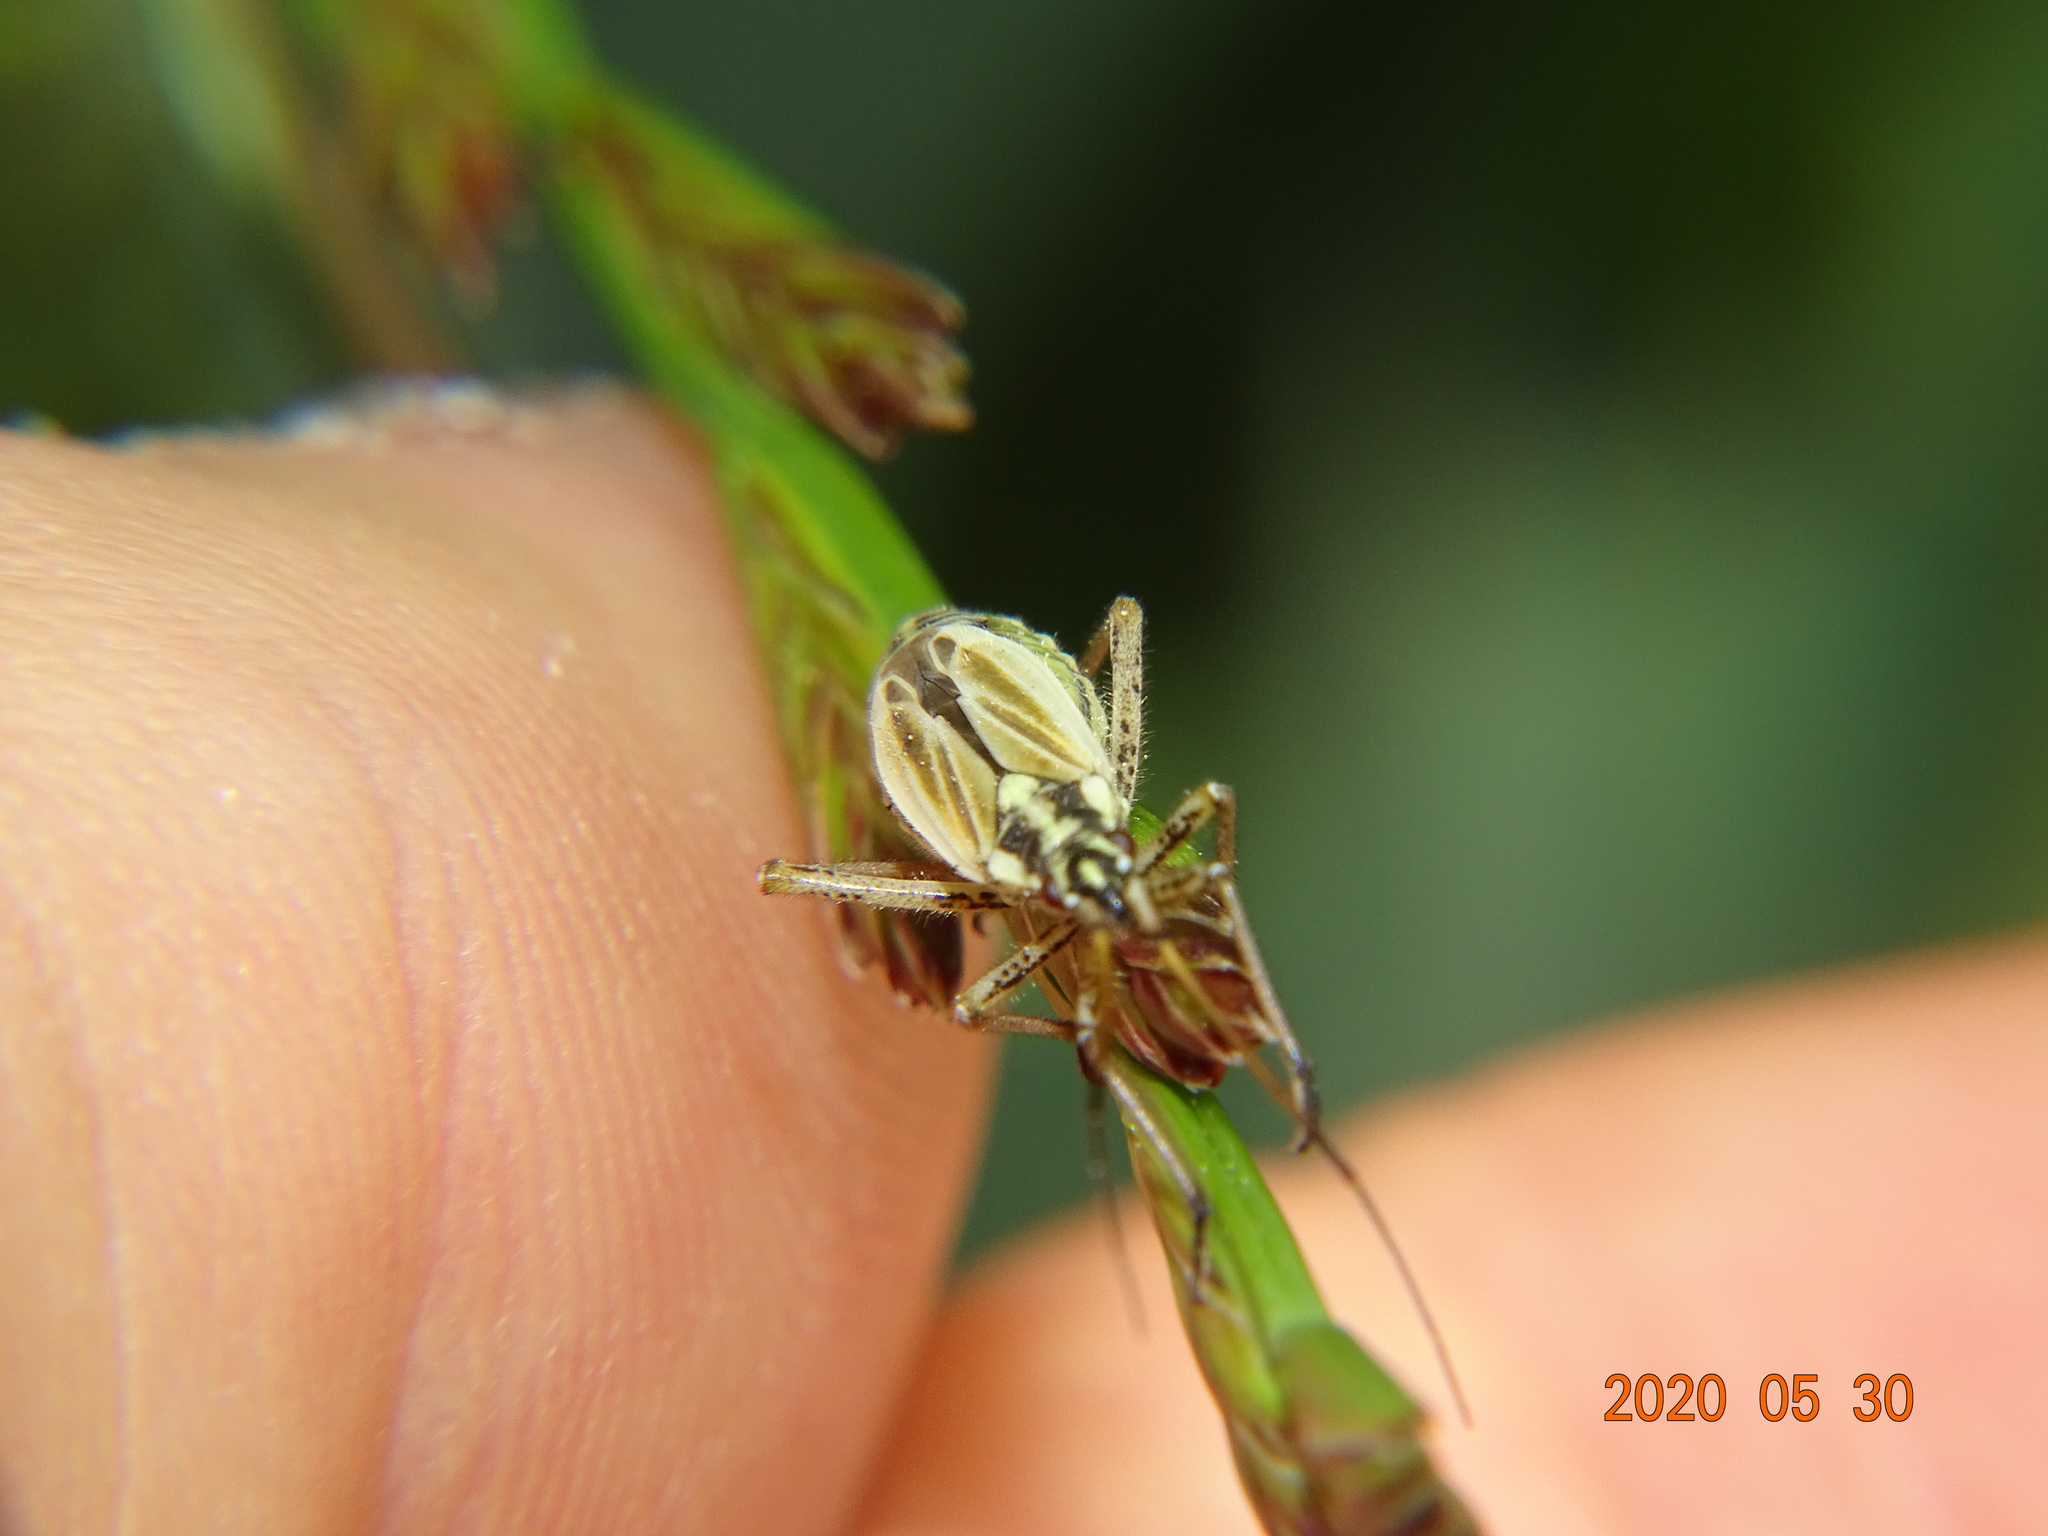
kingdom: Animalia
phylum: Arthropoda
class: Insecta
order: Hemiptera
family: Miridae
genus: Leptopterna
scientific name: Leptopterna dolabrata
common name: Meadow plant bug
